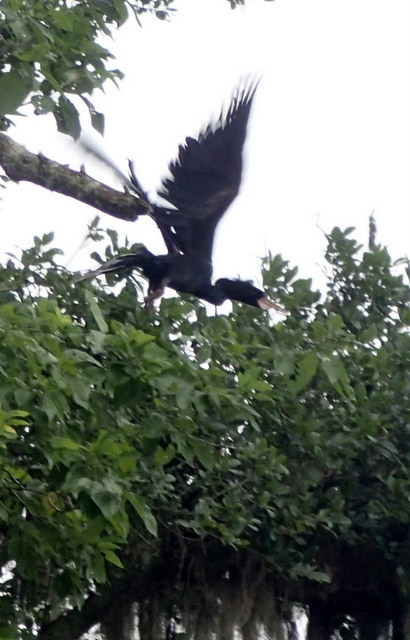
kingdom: Animalia
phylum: Chordata
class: Aves
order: Suliformes
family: Anhingidae
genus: Anhinga
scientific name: Anhinga anhinga
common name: Anhinga
